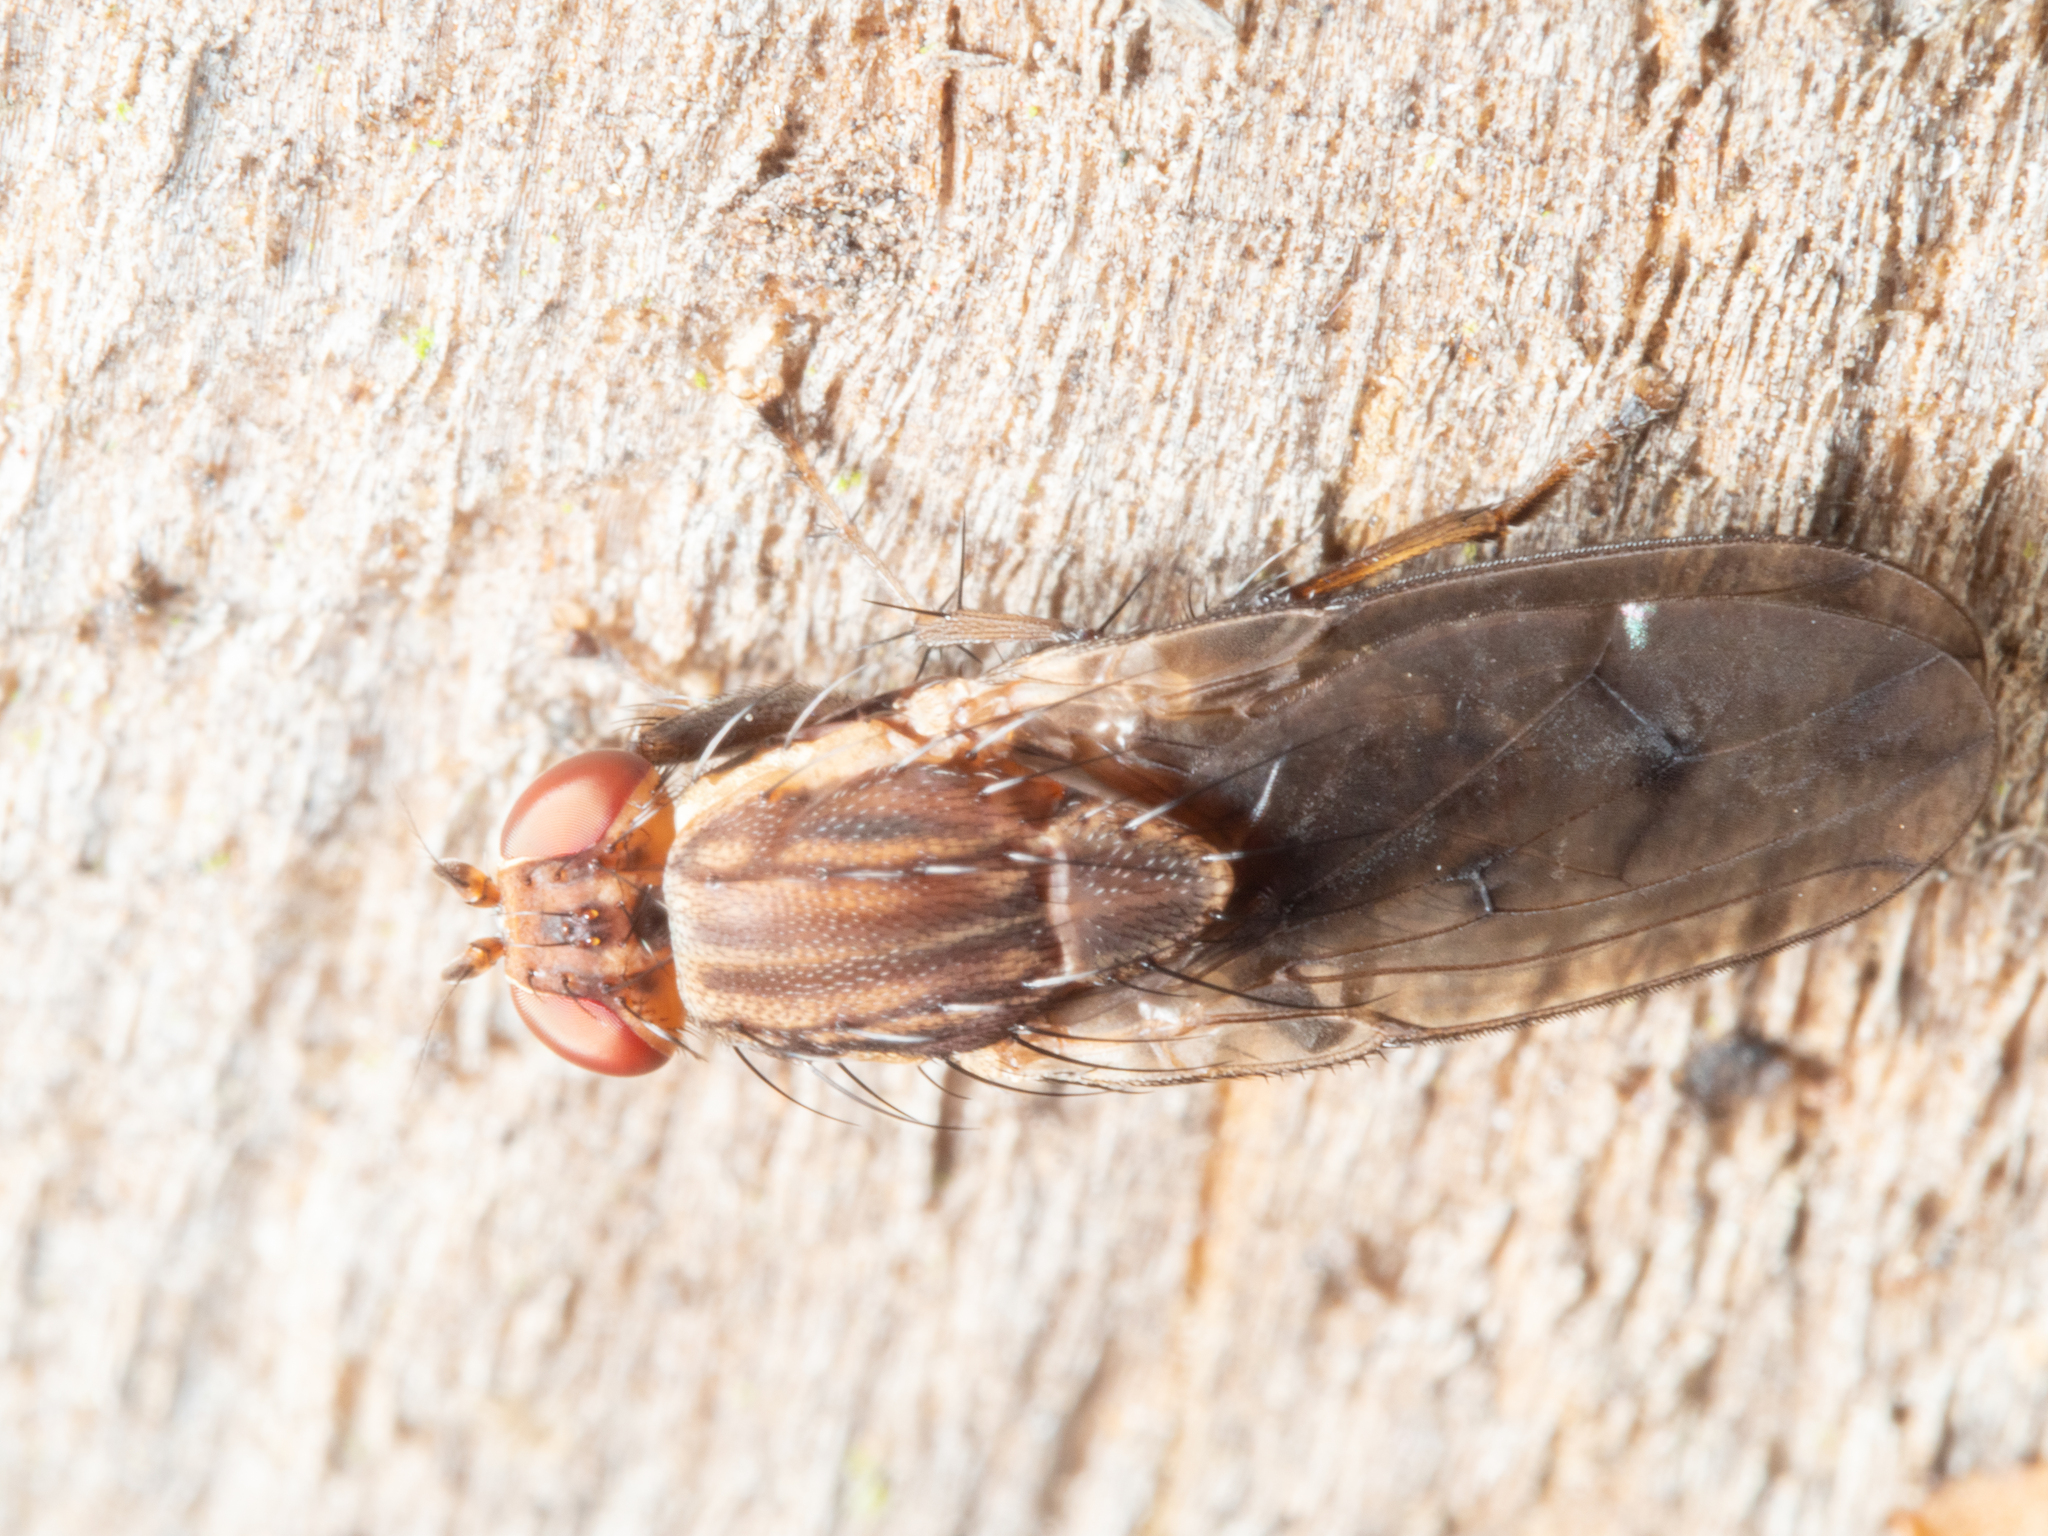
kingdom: Animalia
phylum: Arthropoda
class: Insecta
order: Diptera
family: Heleomyzidae
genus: Diplogeomyza
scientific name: Diplogeomyza diaphora
